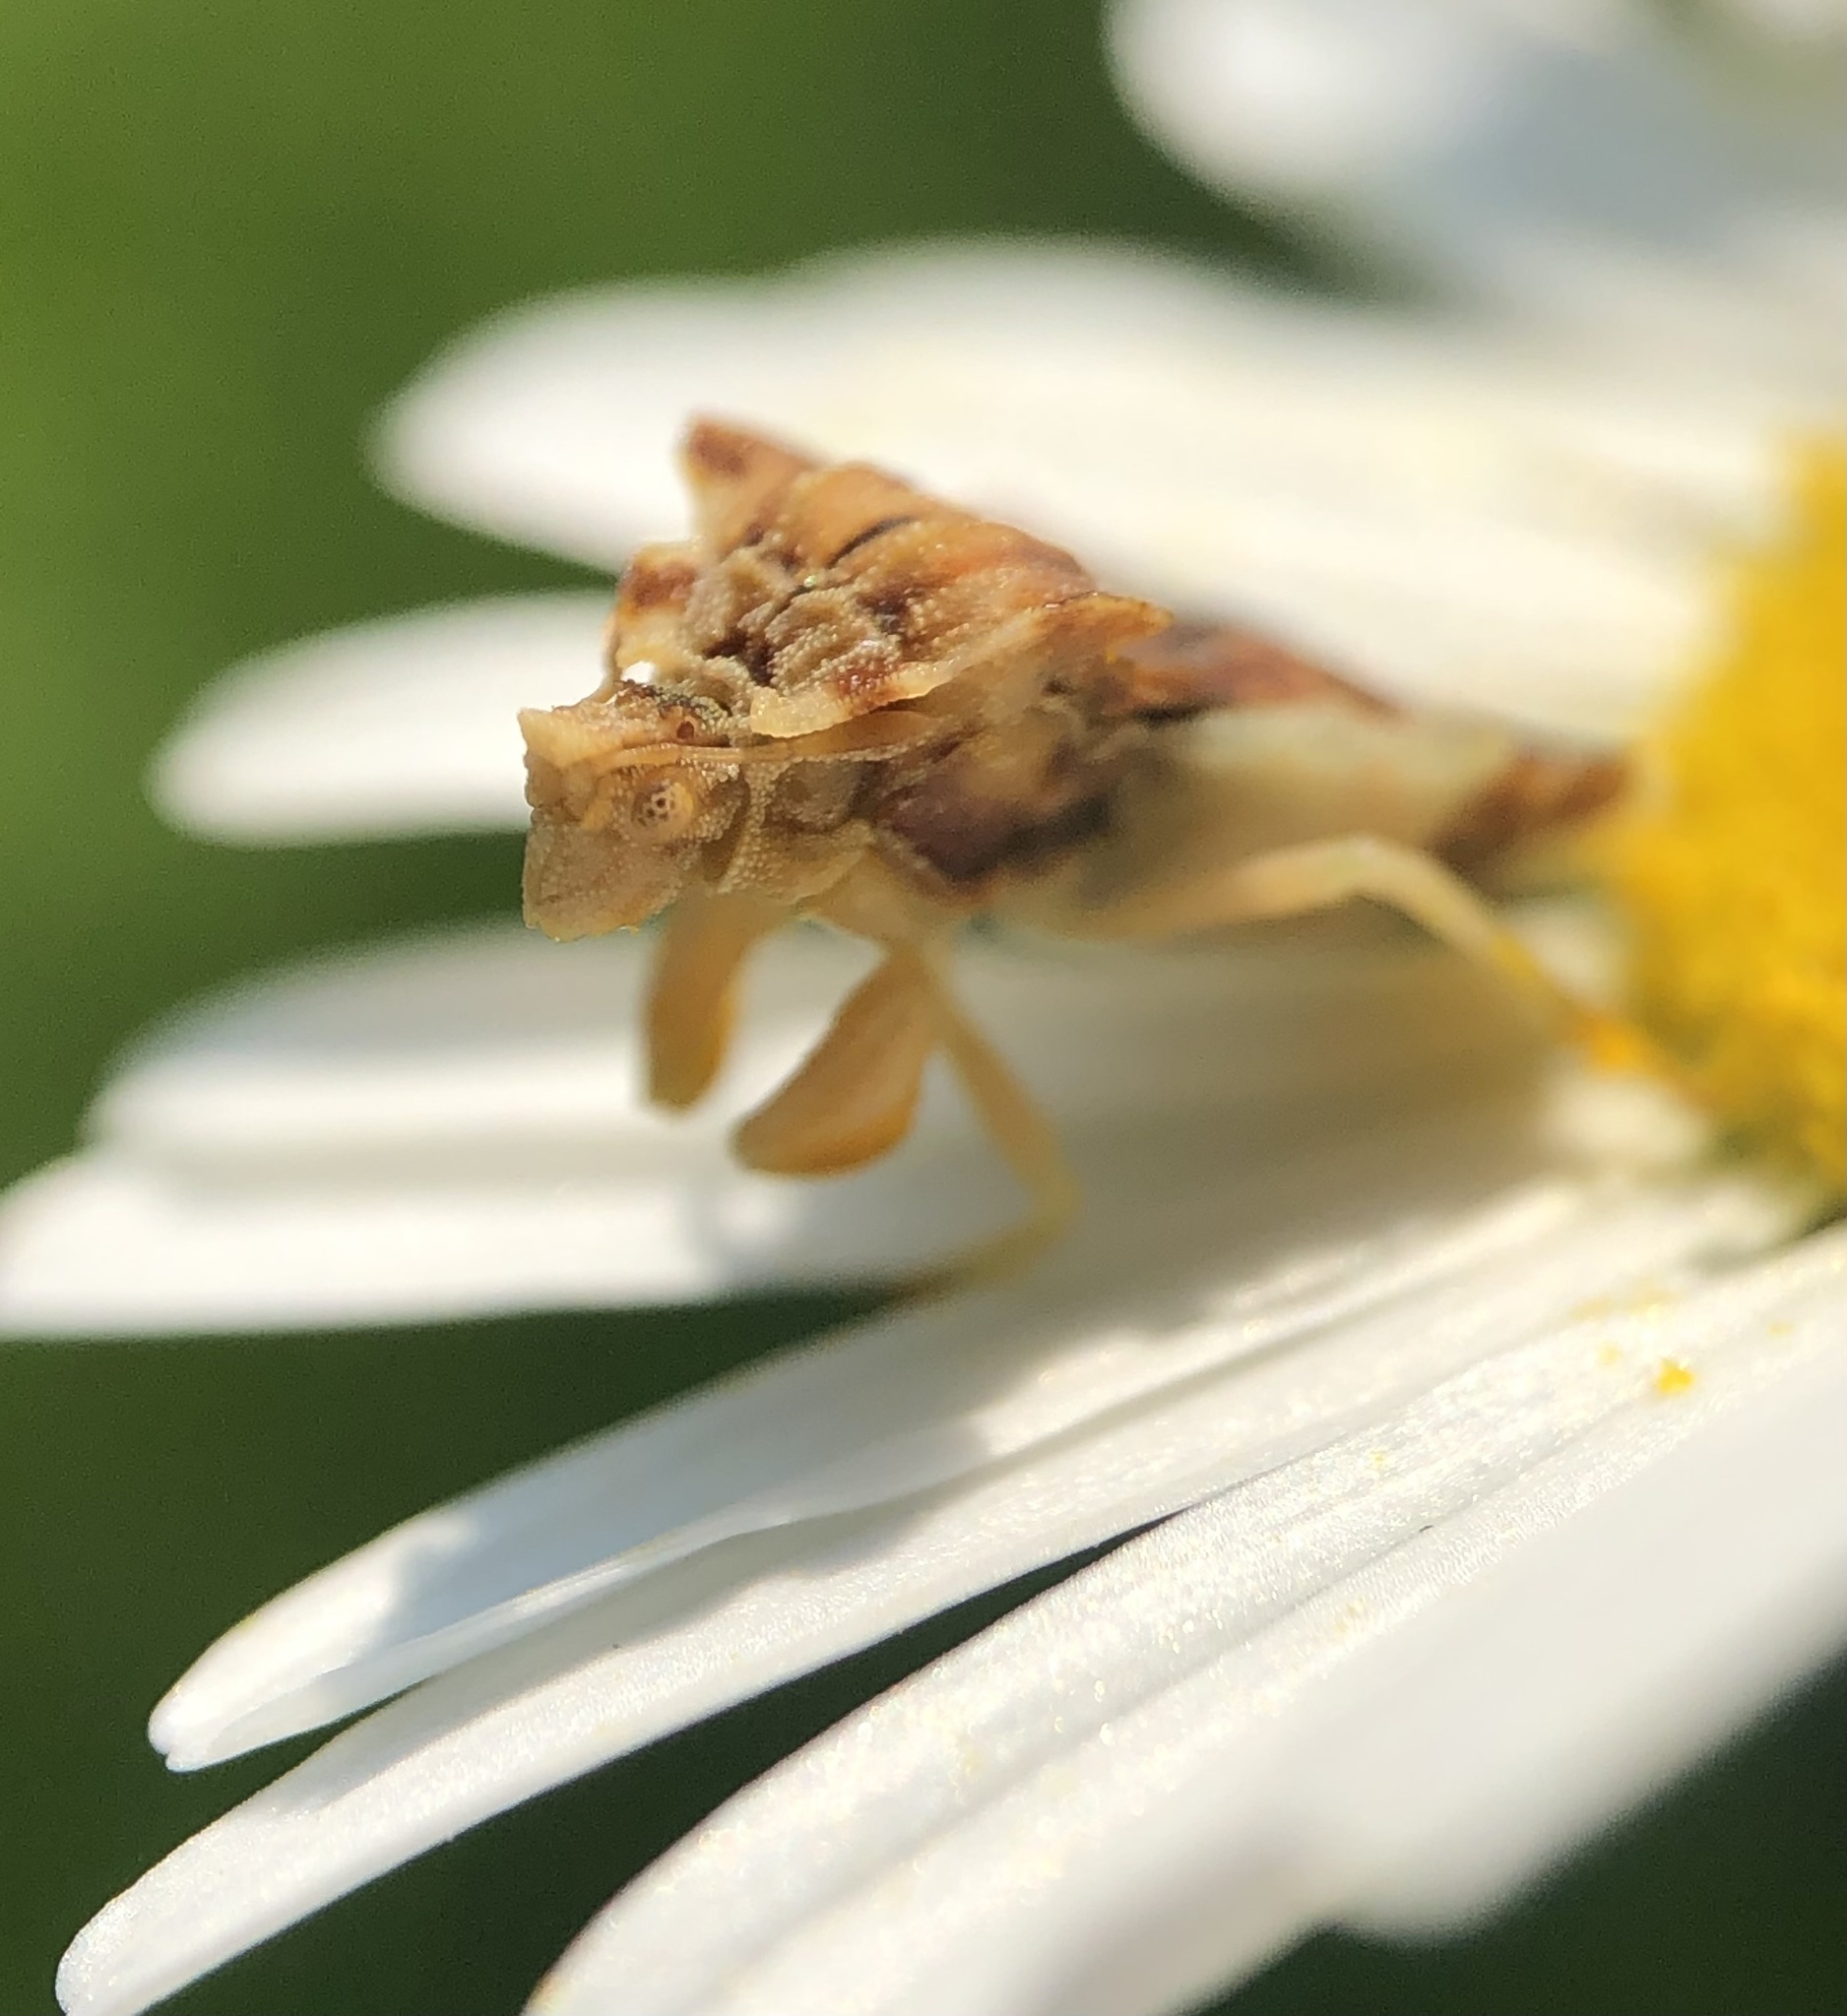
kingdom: Animalia
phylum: Arthropoda
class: Insecta
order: Hemiptera
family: Reduviidae
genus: Phymata
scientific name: Phymata fasciata
